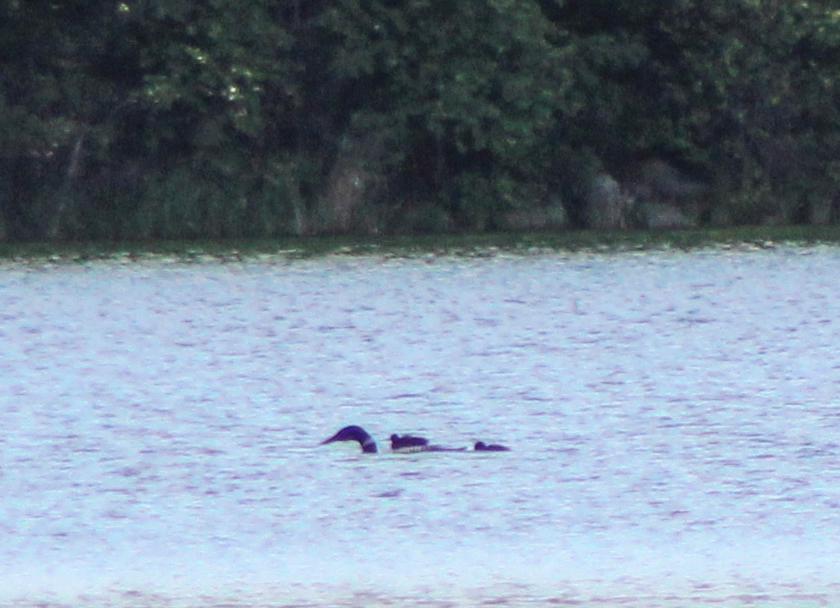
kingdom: Animalia
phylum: Chordata
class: Aves
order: Gaviiformes
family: Gaviidae
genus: Gavia
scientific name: Gavia immer
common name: Common loon
